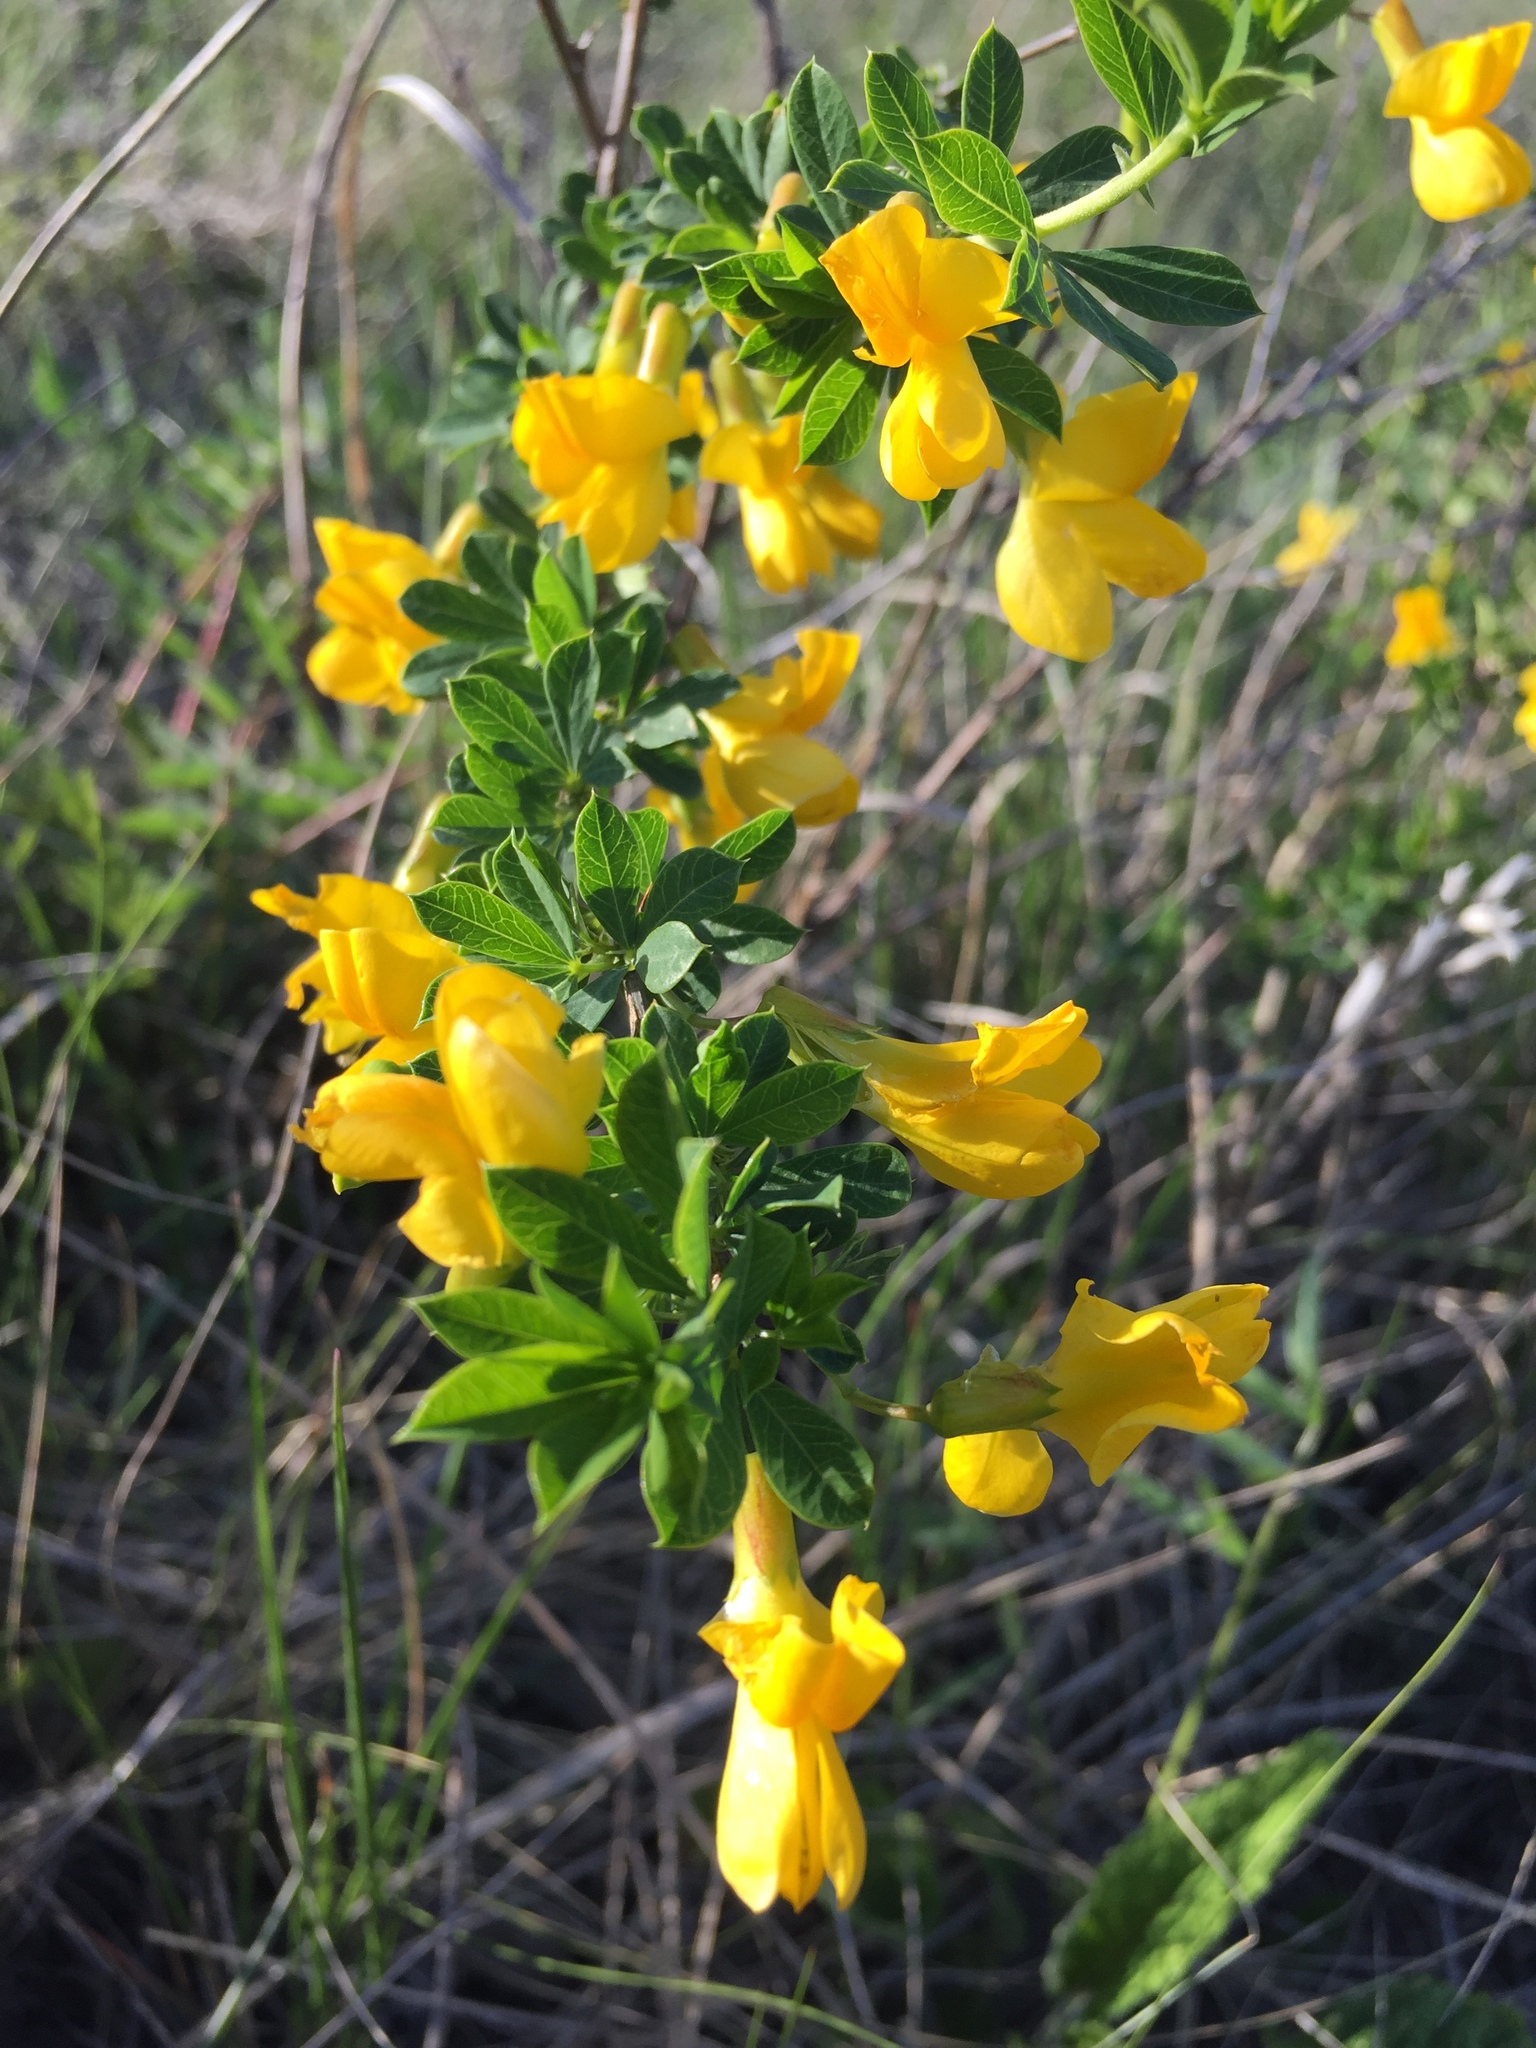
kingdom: Plantae
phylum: Tracheophyta
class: Magnoliopsida
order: Fabales
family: Fabaceae
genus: Caragana
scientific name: Caragana frutex
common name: Russian peashrub
